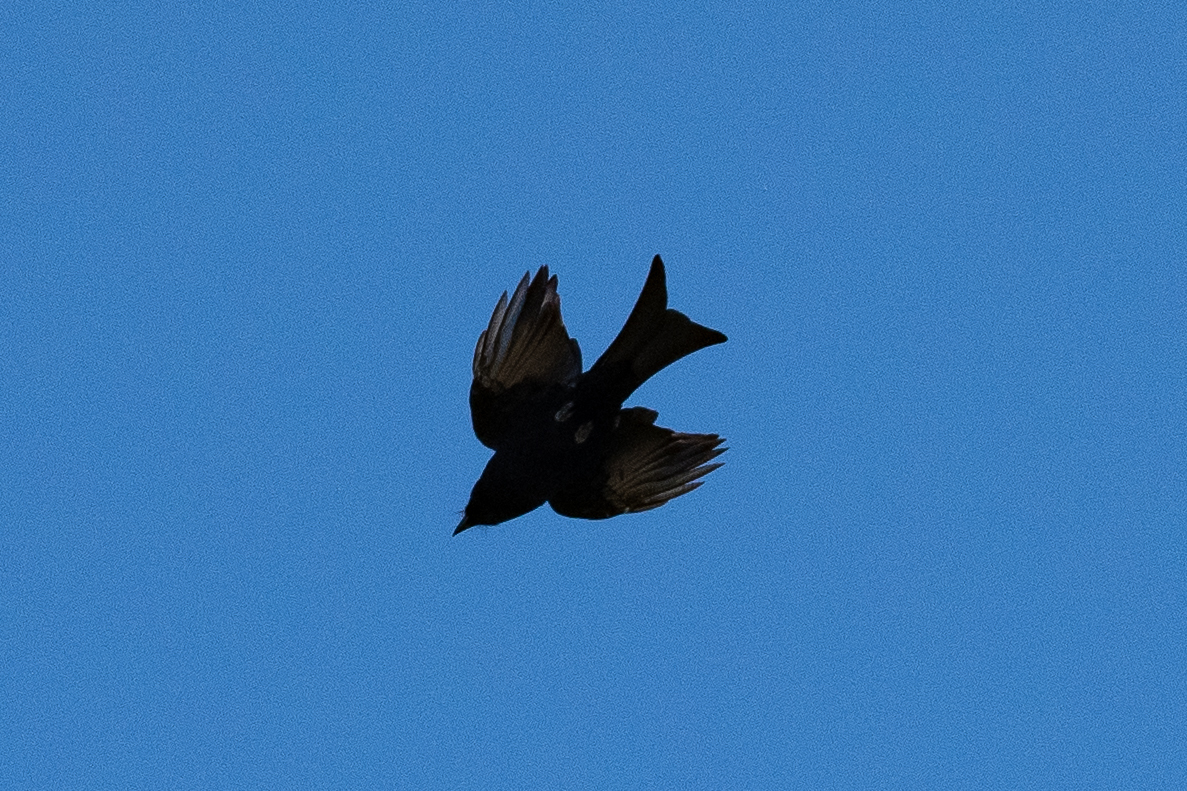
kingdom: Animalia
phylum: Chordata
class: Aves
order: Passeriformes
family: Dicruridae
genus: Dicrurus
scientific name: Dicrurus adsimilis
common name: Fork-tailed drongo
